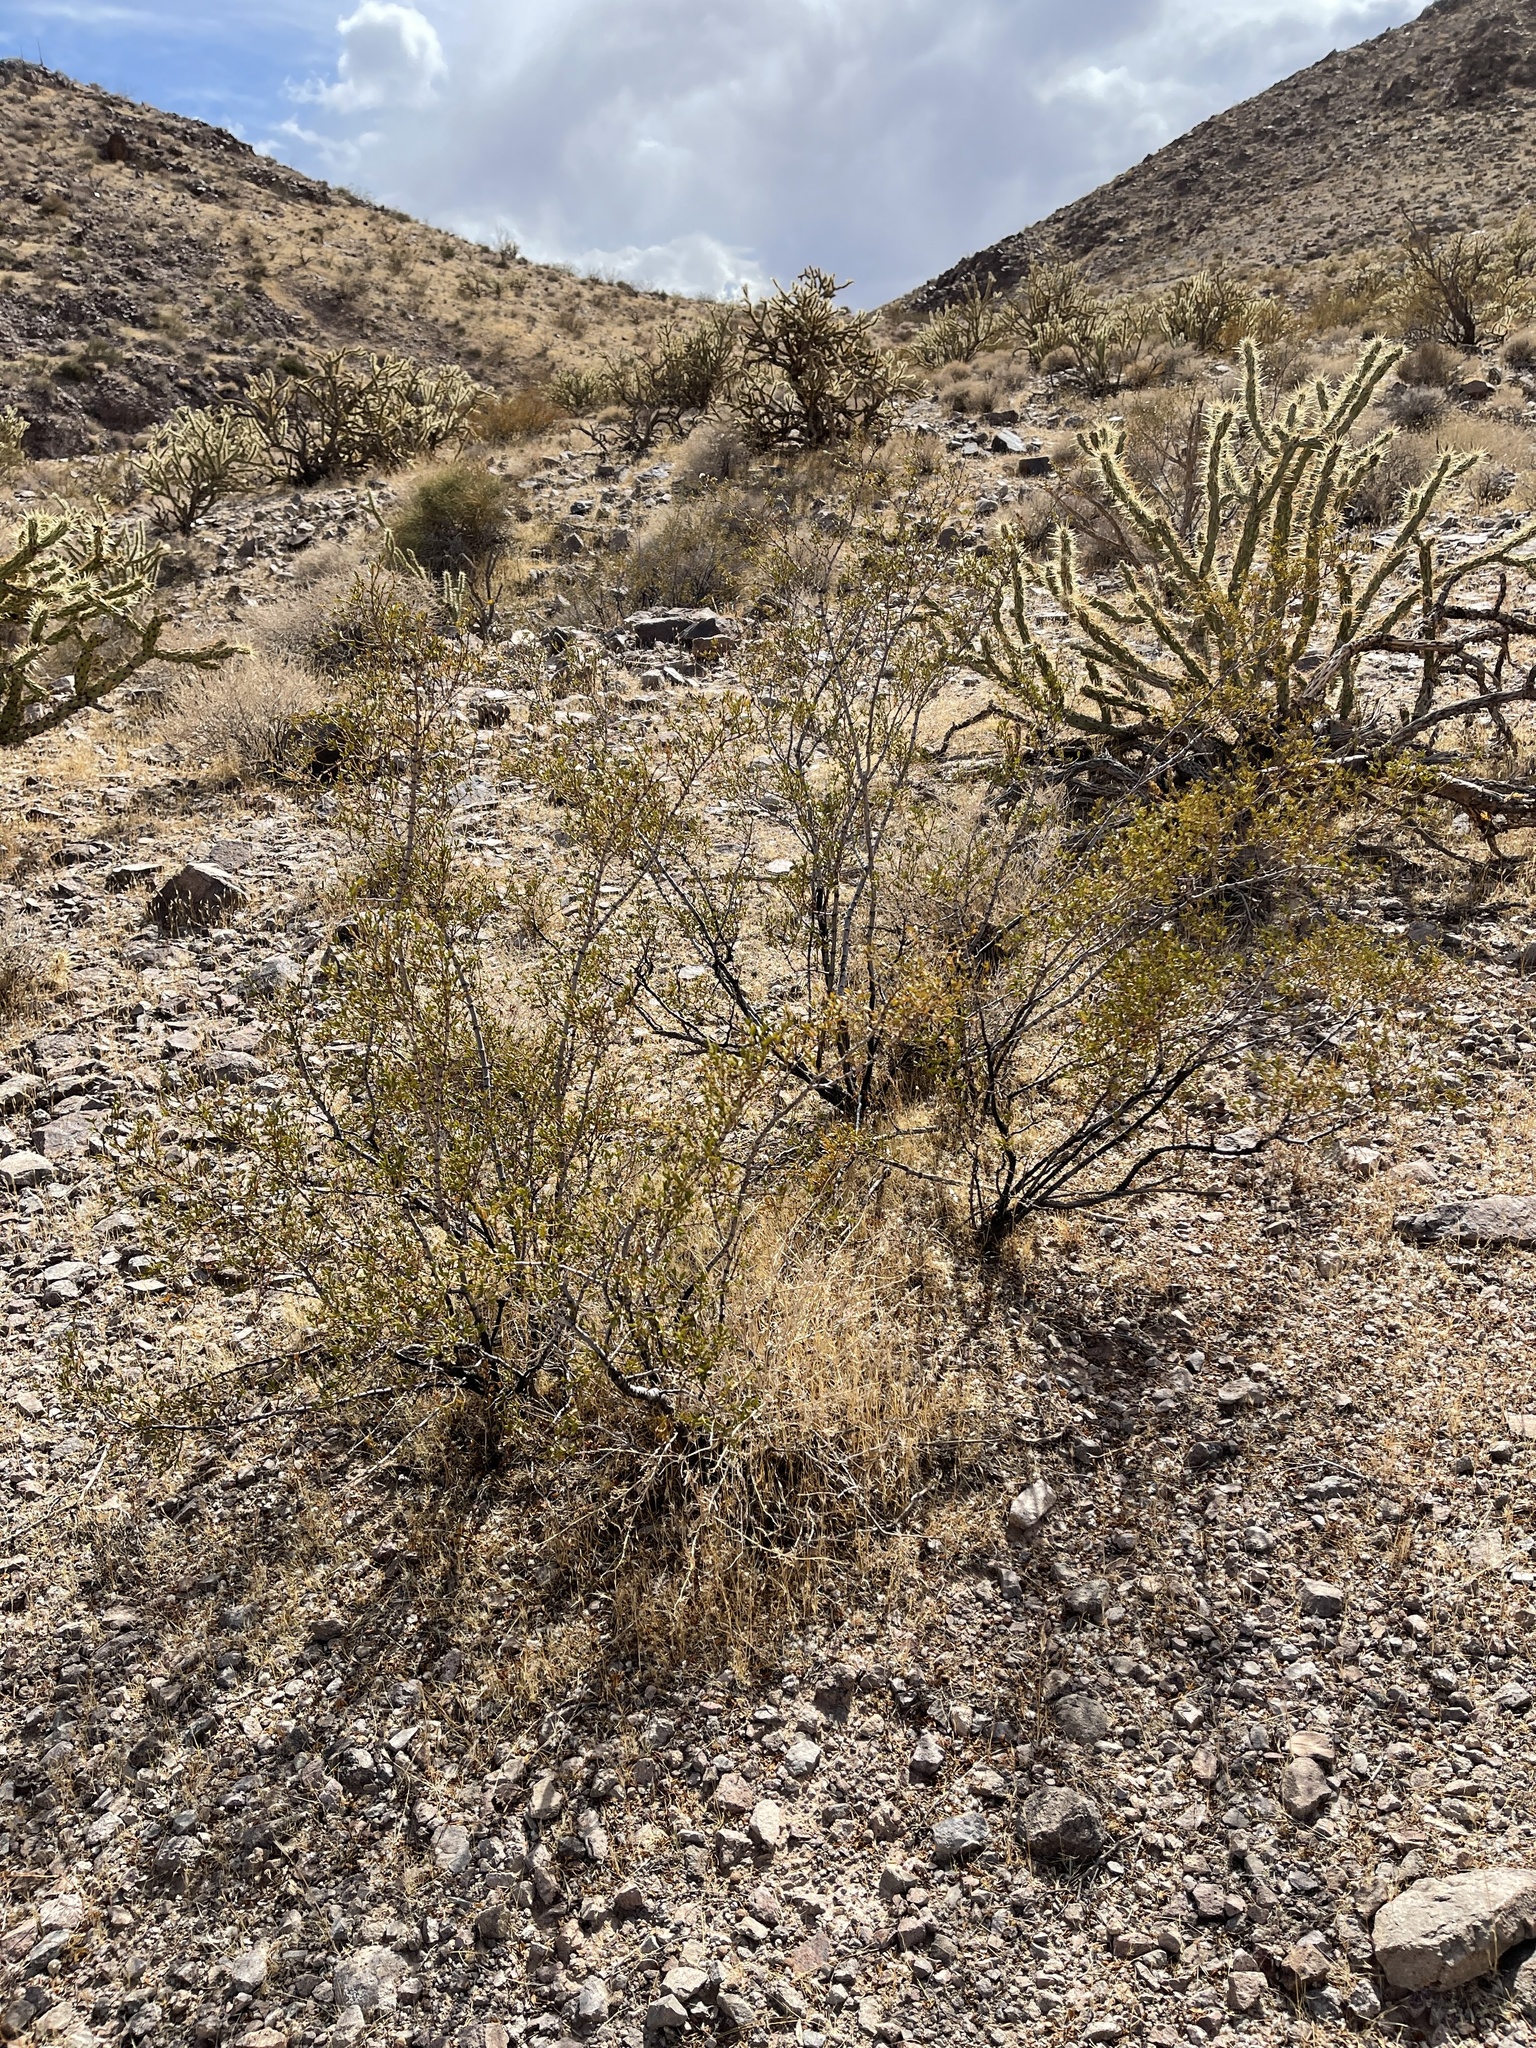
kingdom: Plantae
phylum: Tracheophyta
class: Magnoliopsida
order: Zygophyllales
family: Zygophyllaceae
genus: Larrea
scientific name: Larrea tridentata
